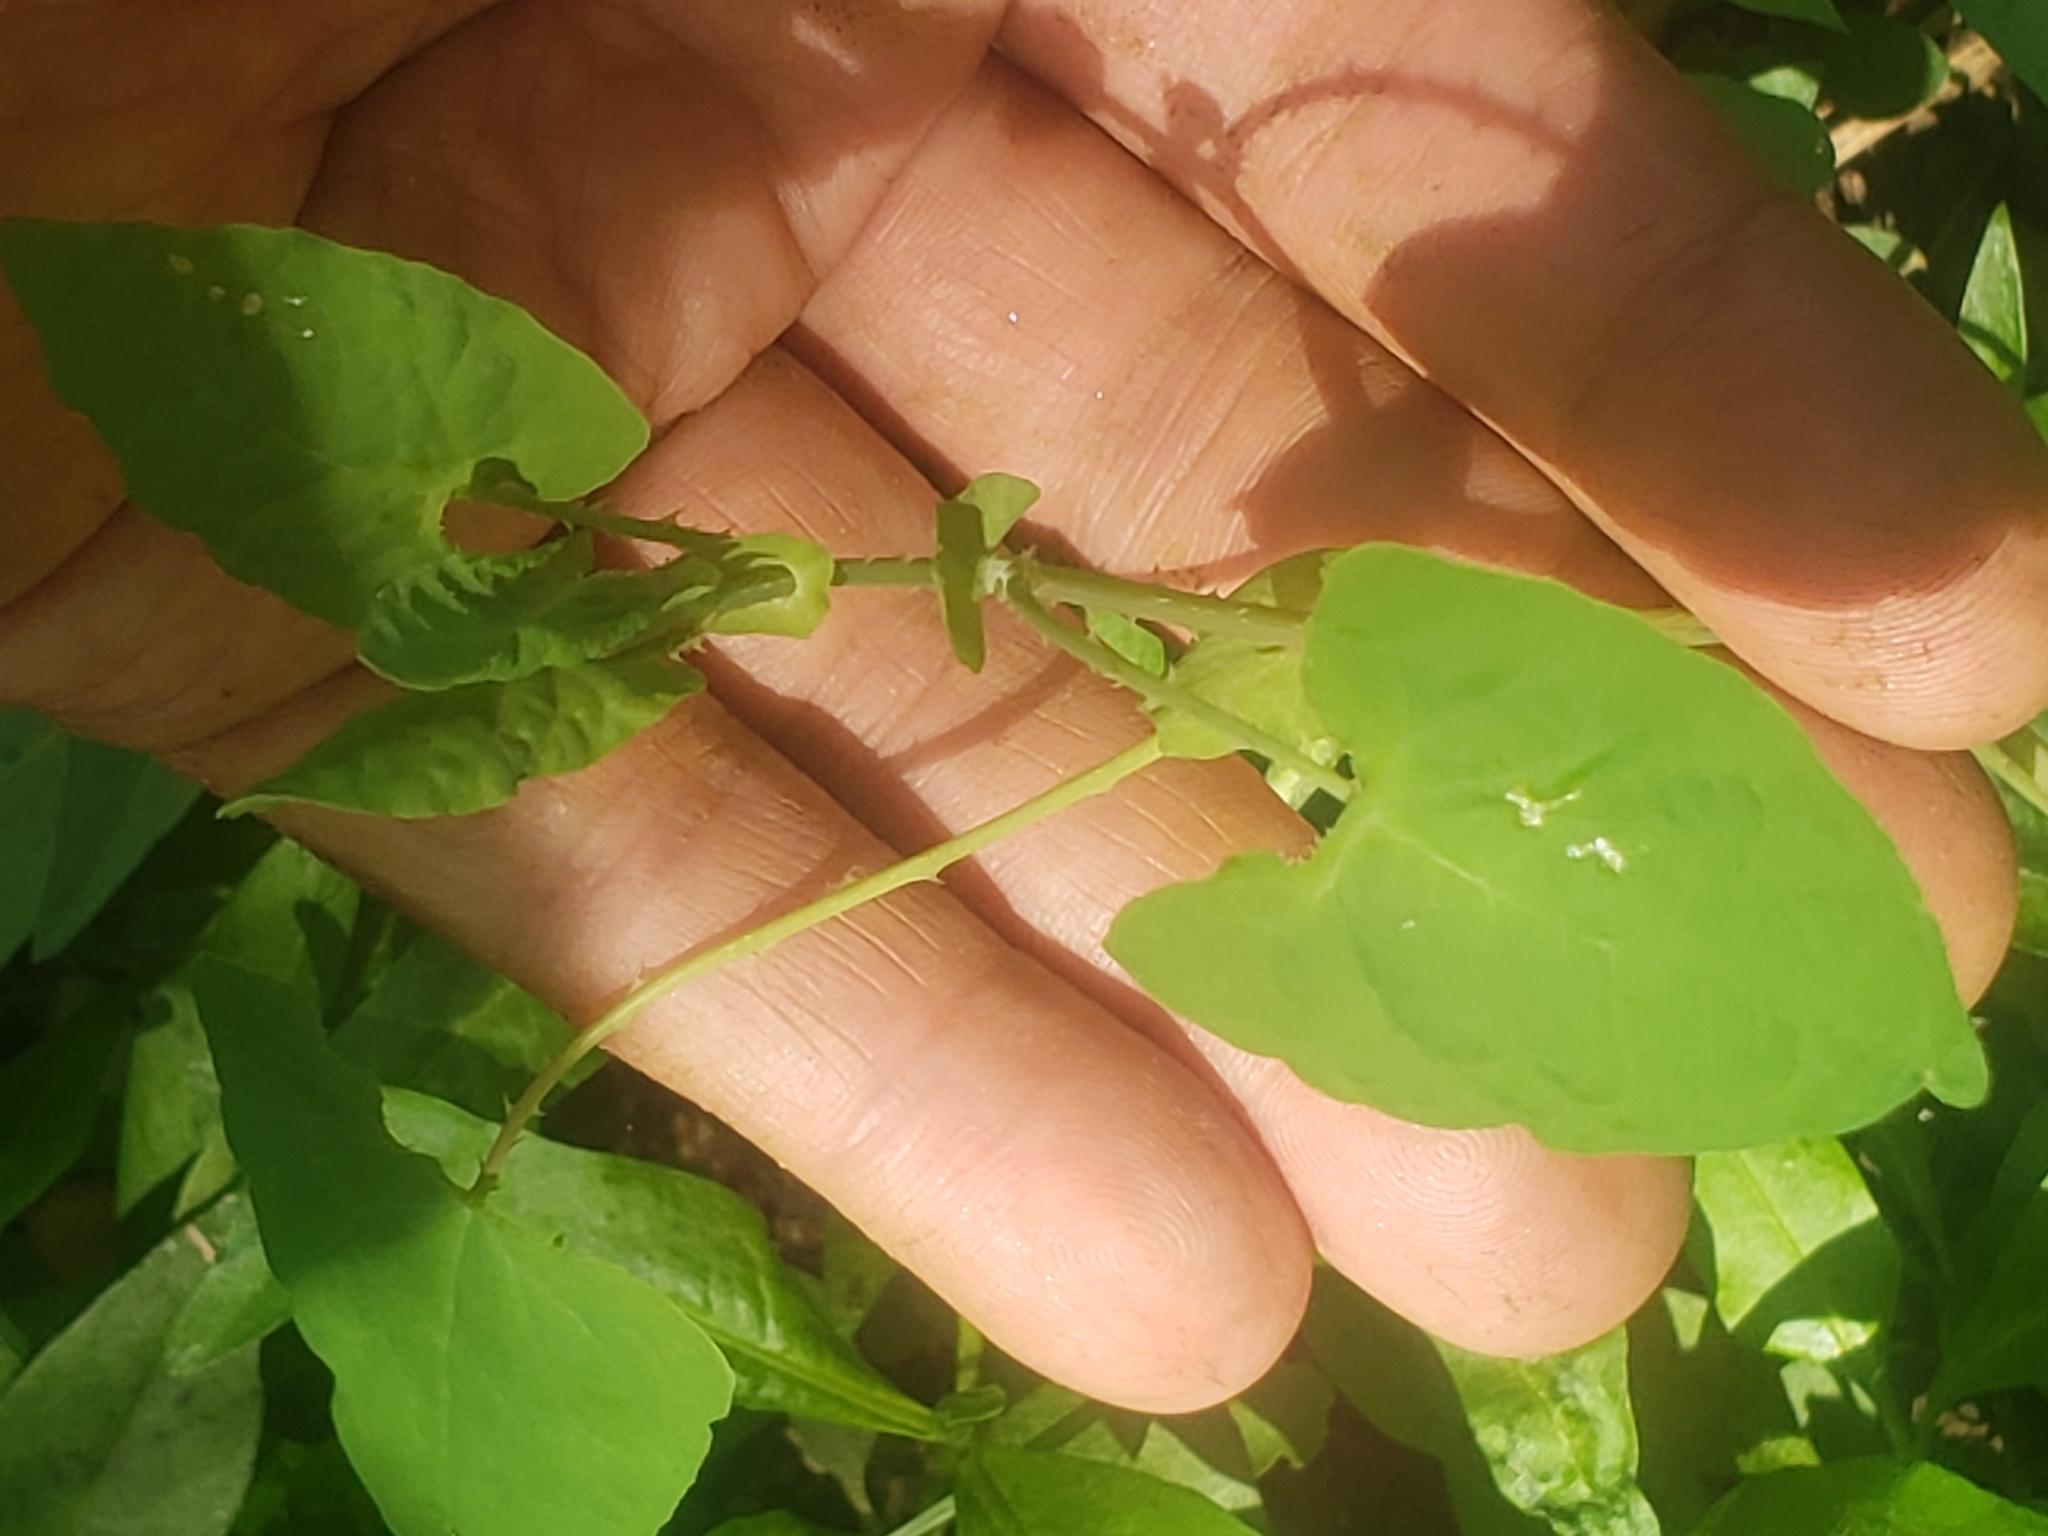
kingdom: Plantae
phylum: Tracheophyta
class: Magnoliopsida
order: Caryophyllales
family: Polygonaceae
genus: Persicaria
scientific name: Persicaria perfoliata
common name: Asiatic tearthumb
